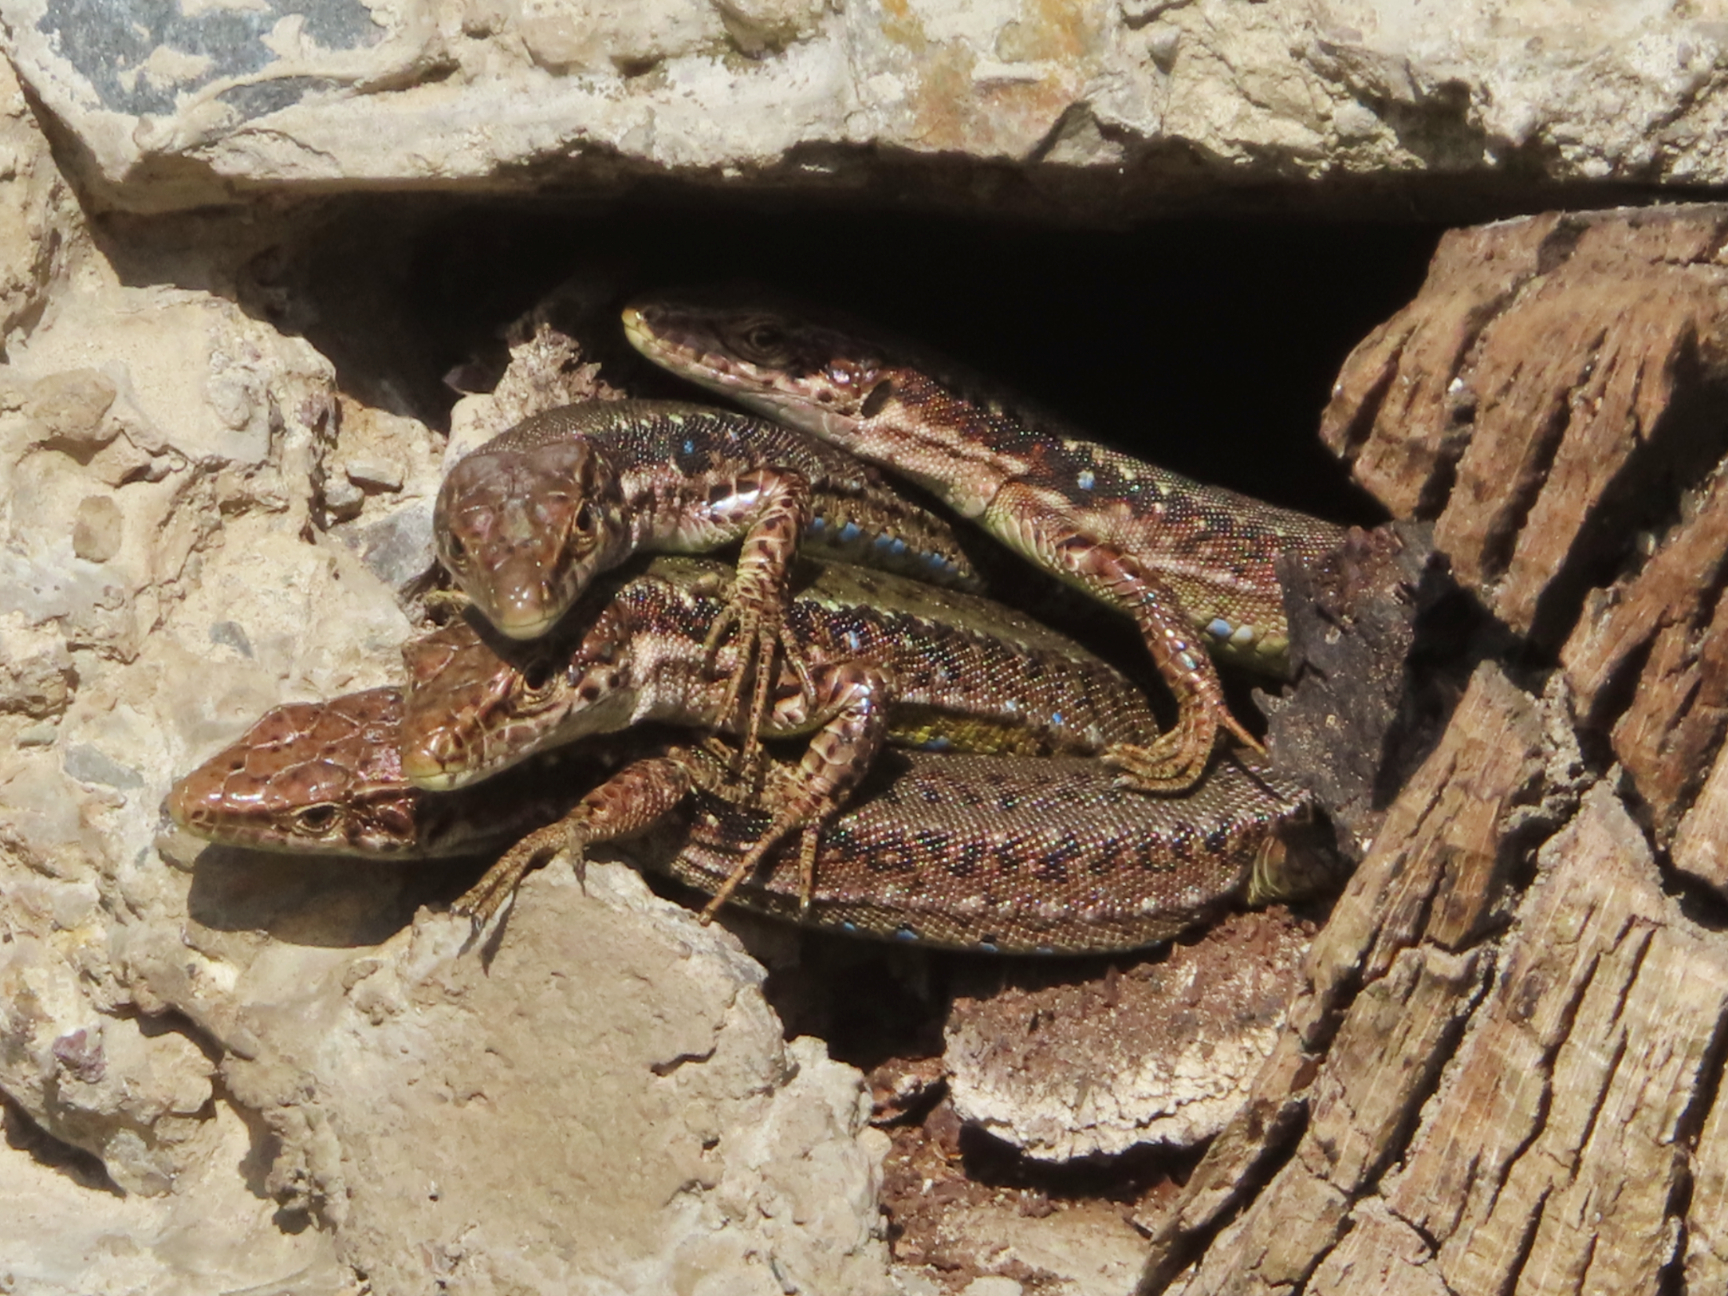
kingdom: Animalia
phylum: Chordata
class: Squamata
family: Lacertidae
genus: Darevskia
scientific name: Darevskia armeniaca
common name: Armenian lizard
